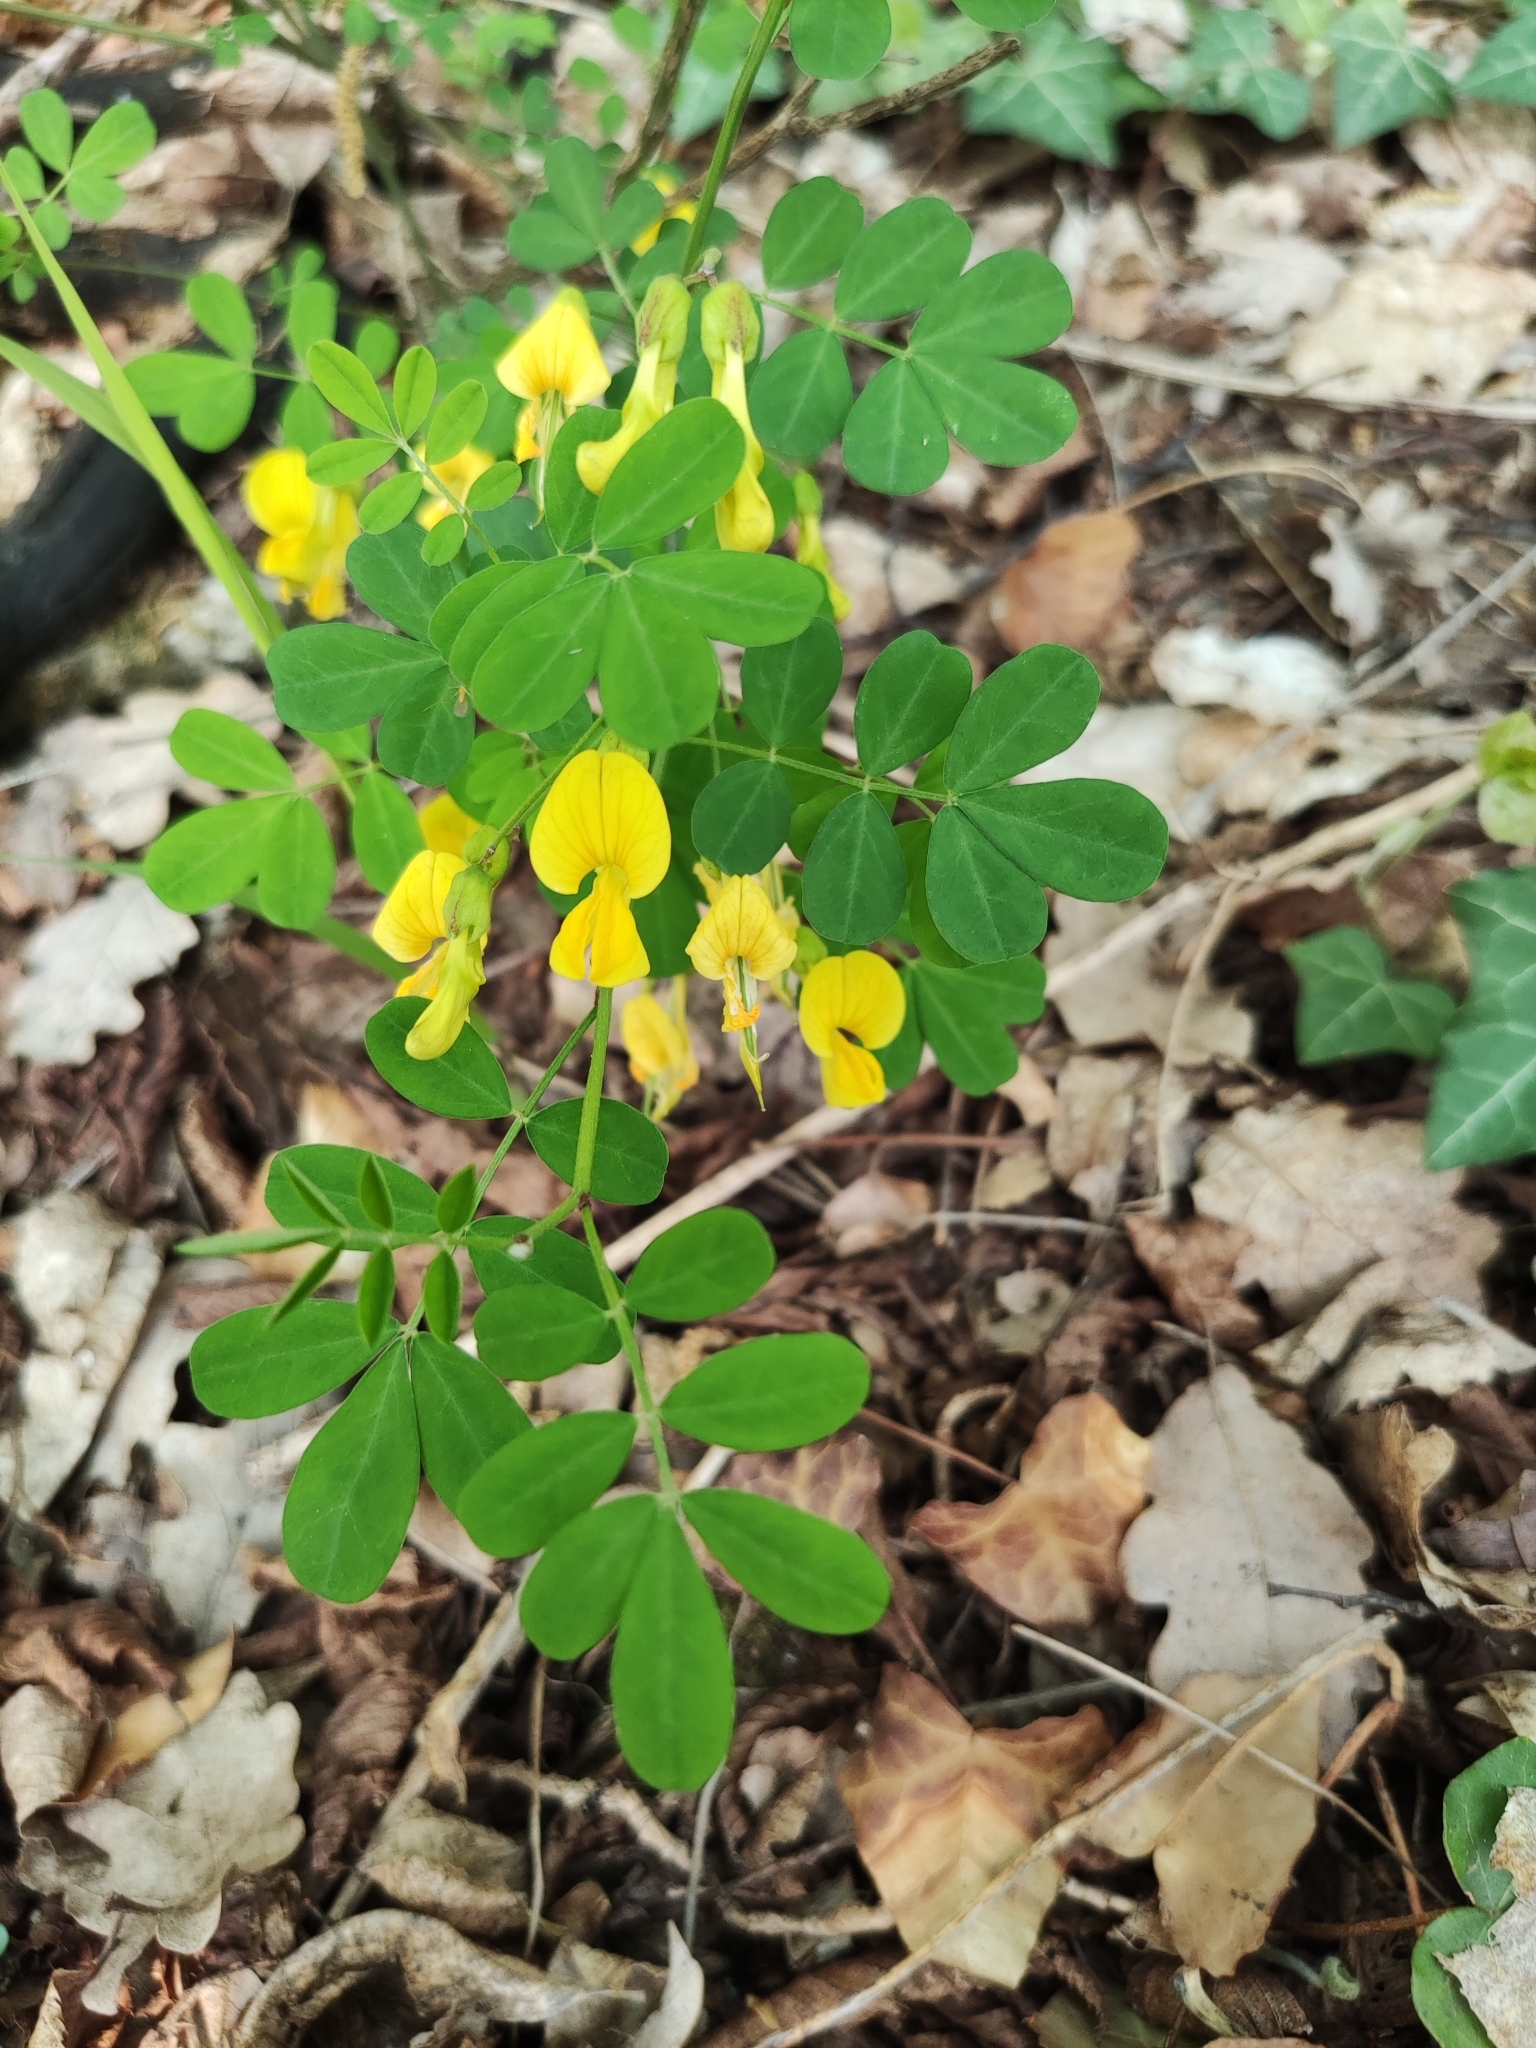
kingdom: Plantae
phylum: Tracheophyta
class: Magnoliopsida
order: Fabales
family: Fabaceae
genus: Hippocrepis
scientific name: Hippocrepis emerus
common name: Scorpion senna
